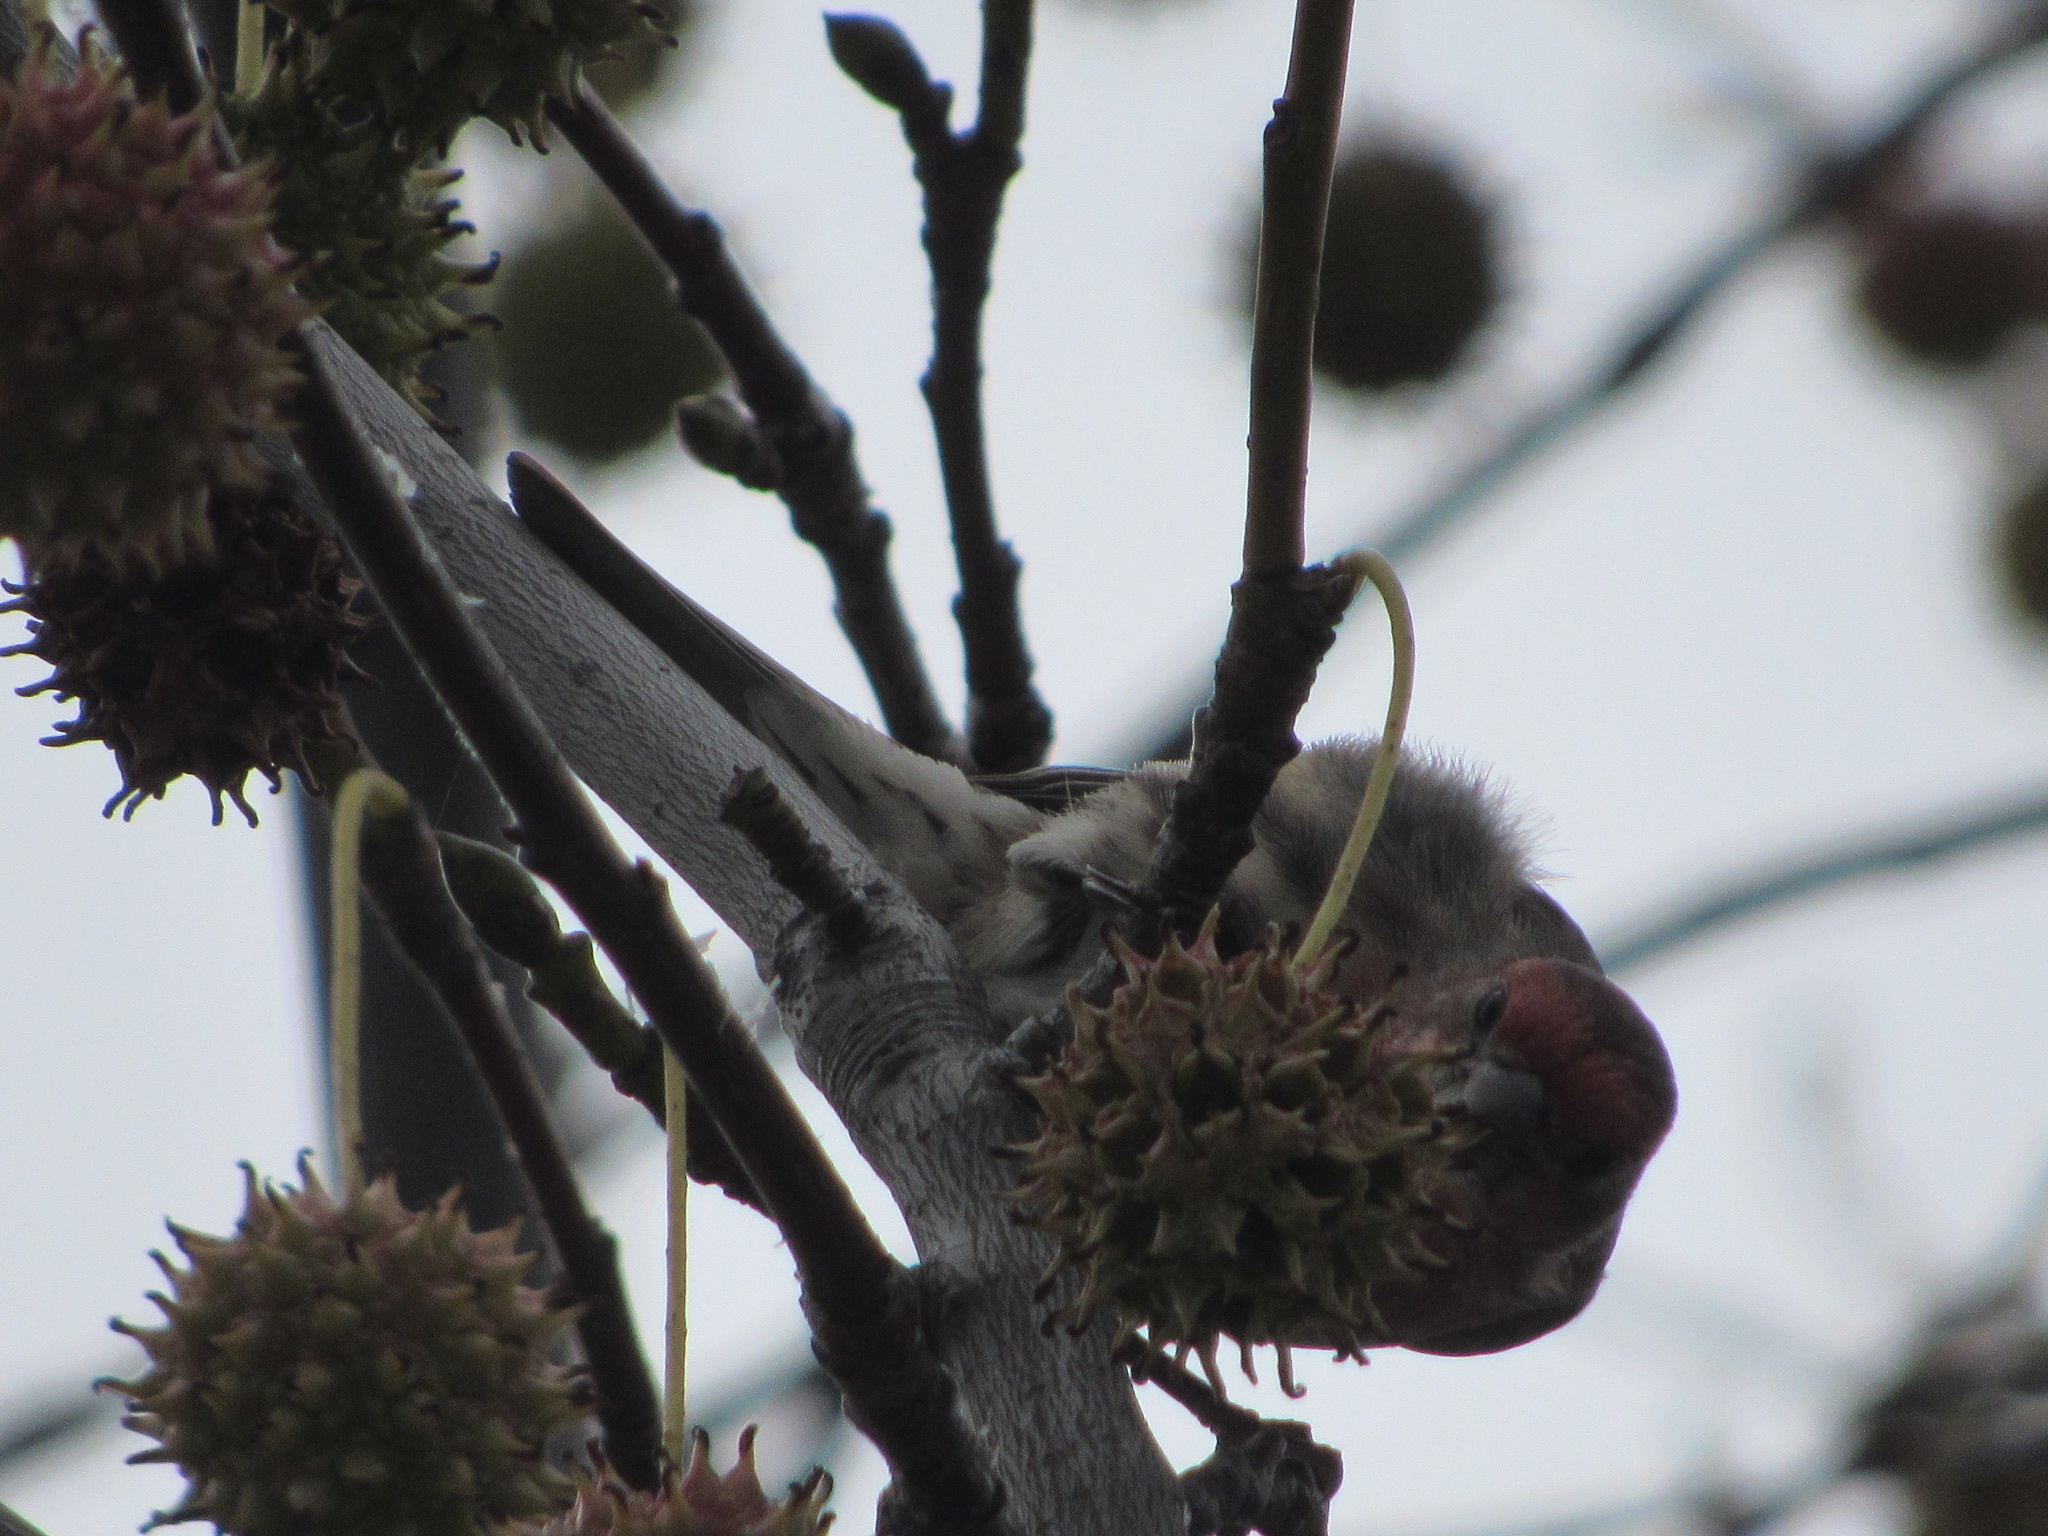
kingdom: Animalia
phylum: Chordata
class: Aves
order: Passeriformes
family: Fringillidae
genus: Haemorhous
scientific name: Haemorhous mexicanus
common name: House finch
